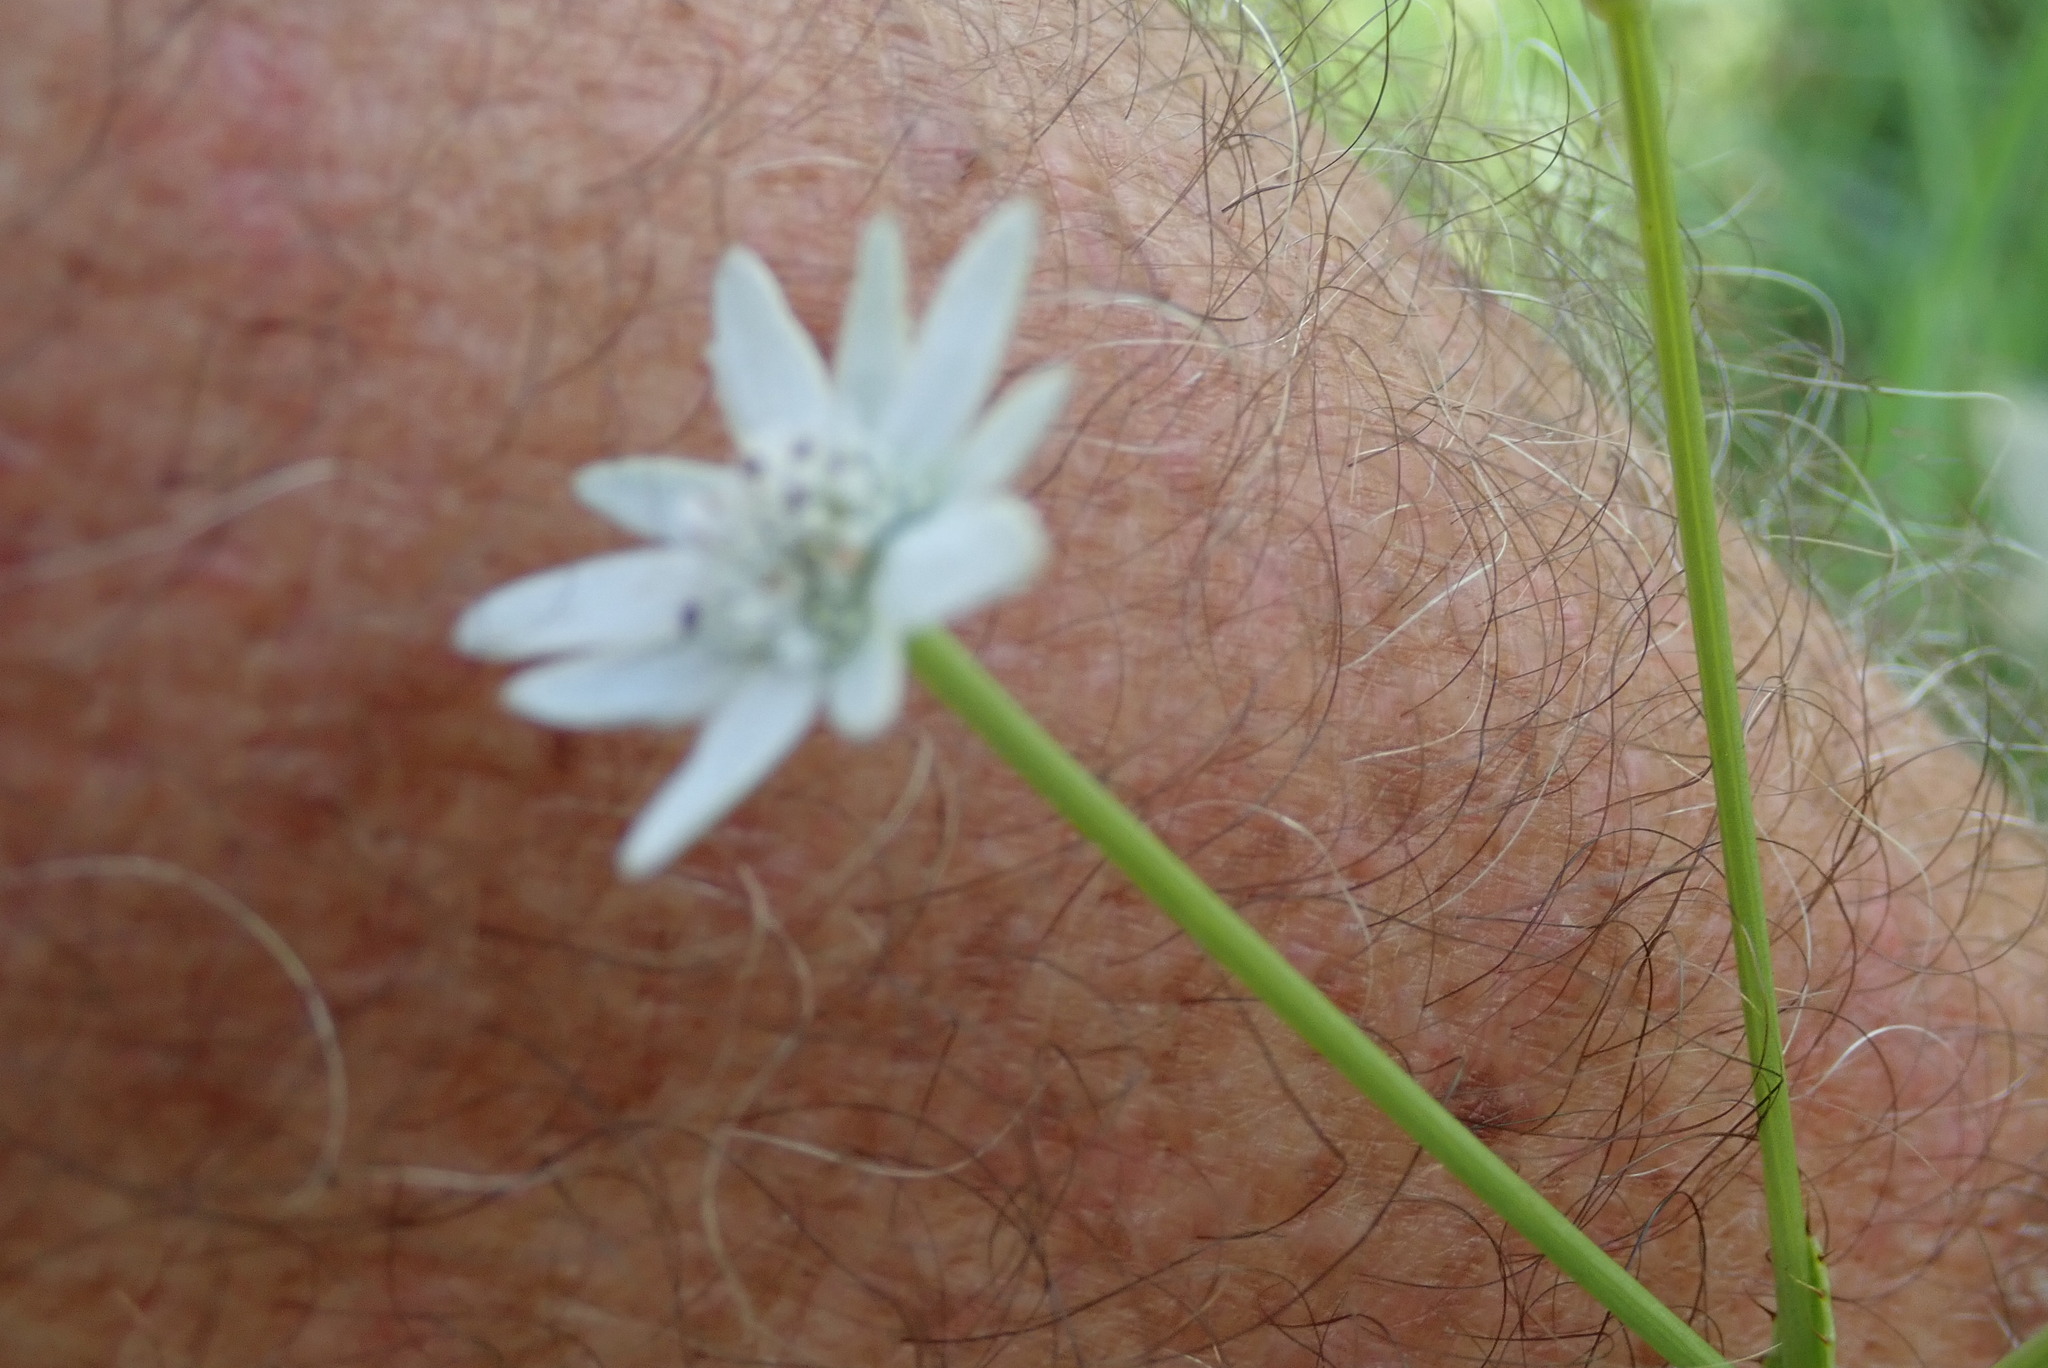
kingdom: Plantae
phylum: Tracheophyta
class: Magnoliopsida
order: Apiales
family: Apiaceae
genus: Alepidea
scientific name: Alepidea peduncularis
